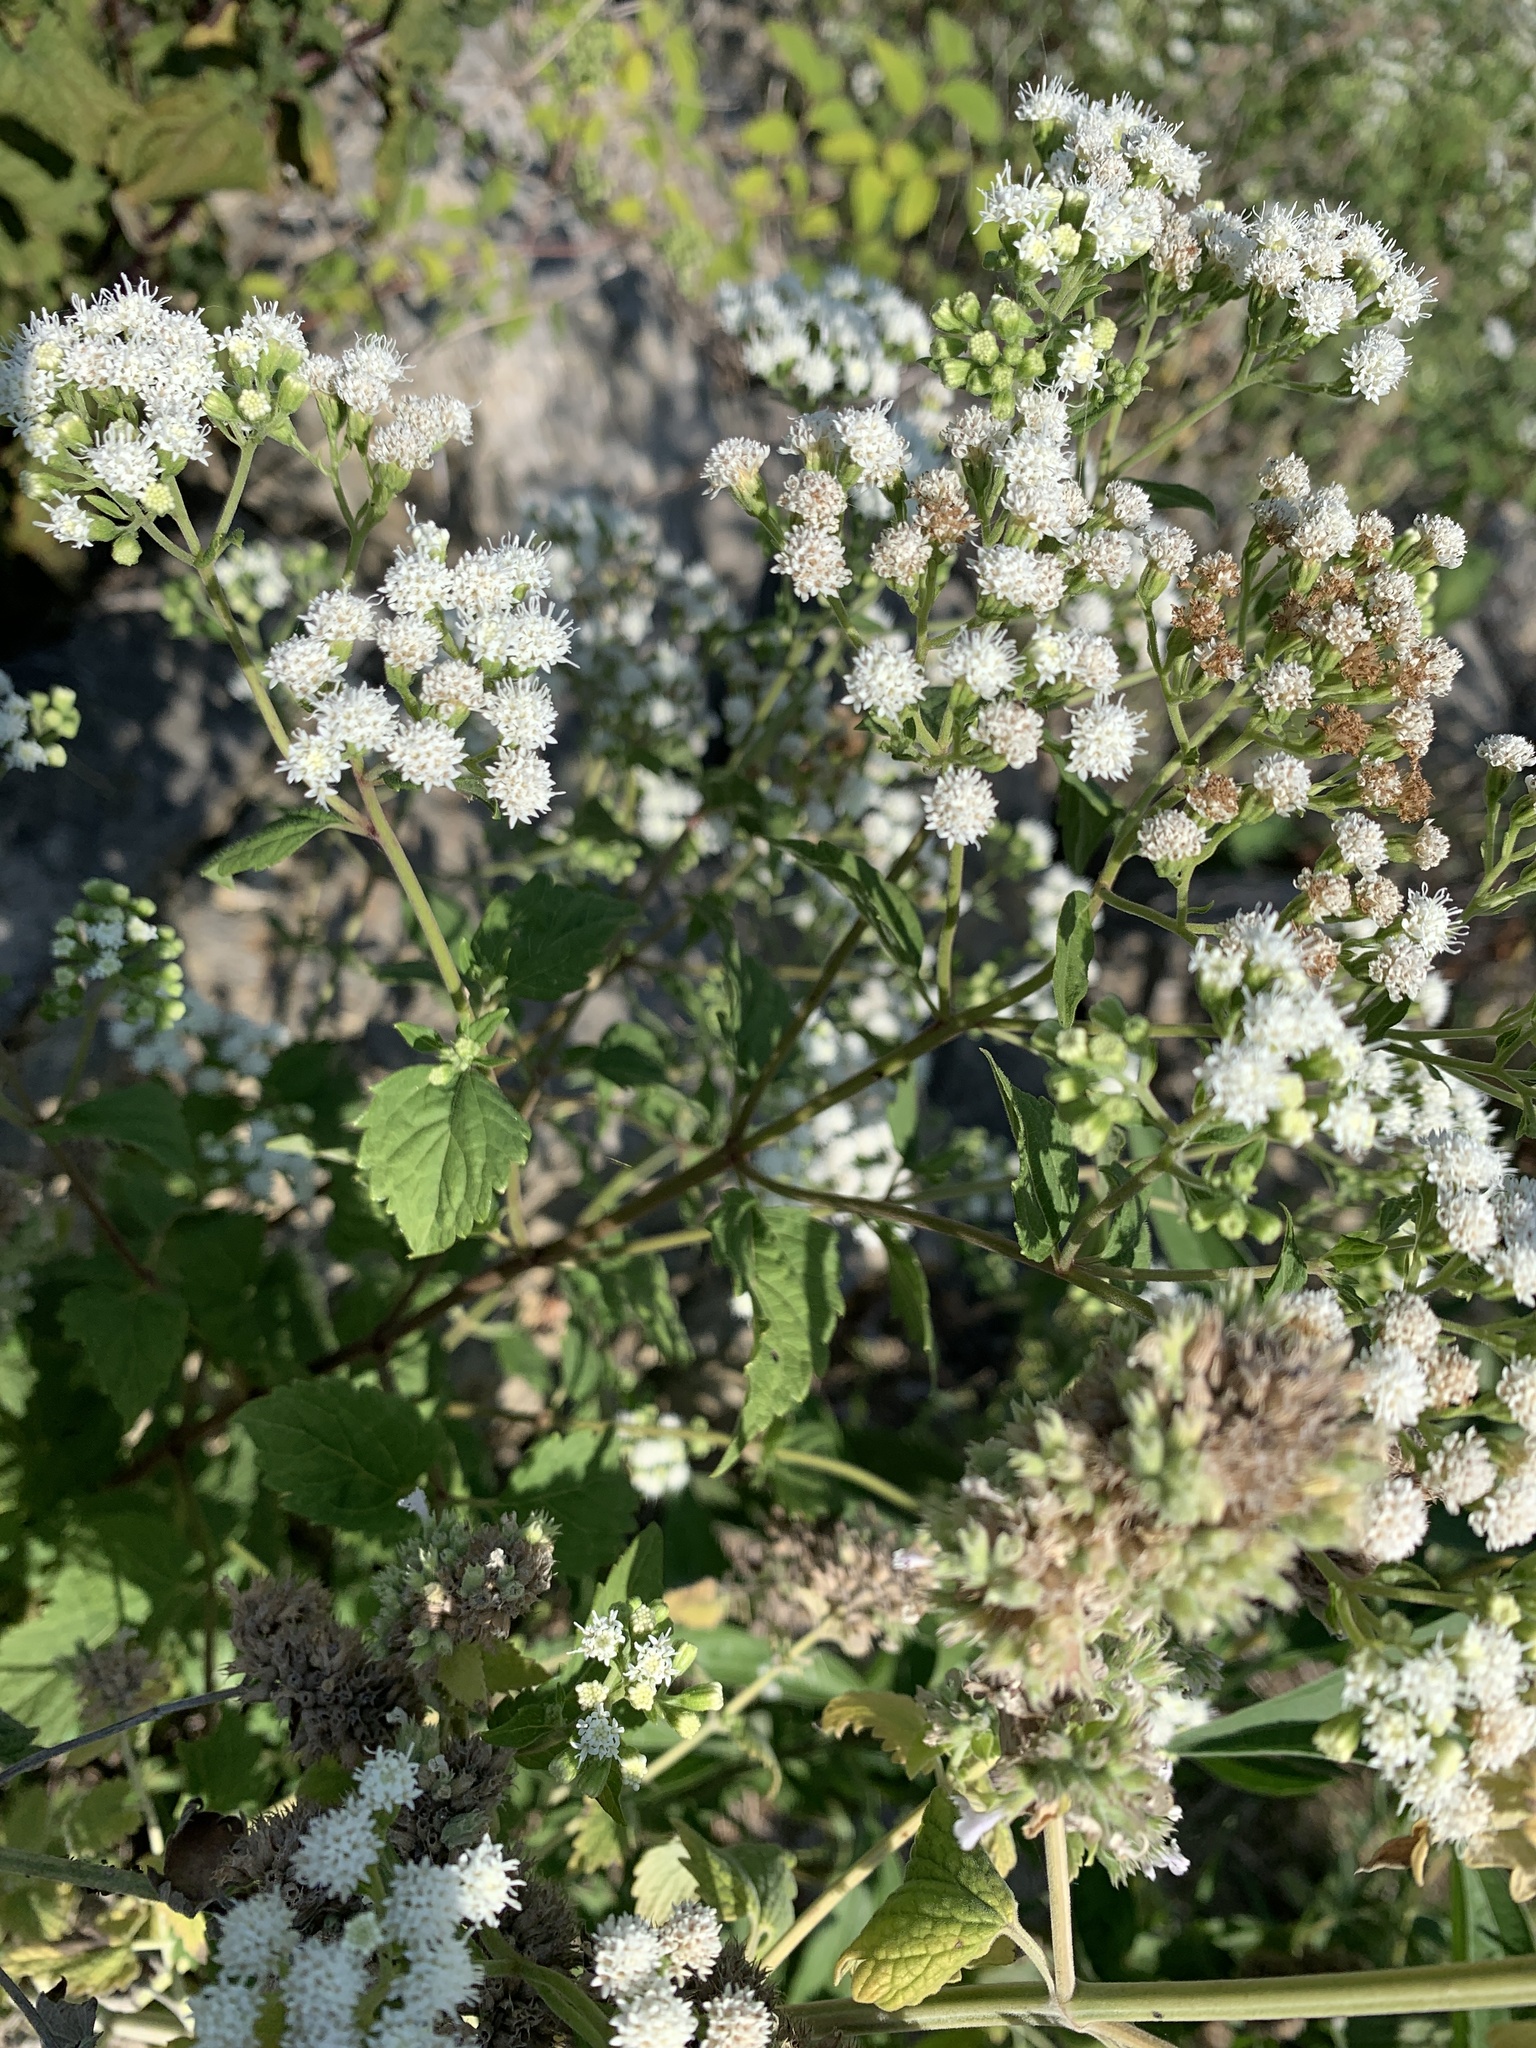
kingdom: Plantae
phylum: Tracheophyta
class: Magnoliopsida
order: Asterales
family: Asteraceae
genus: Ageratina
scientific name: Ageratina altissima
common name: White snakeroot
